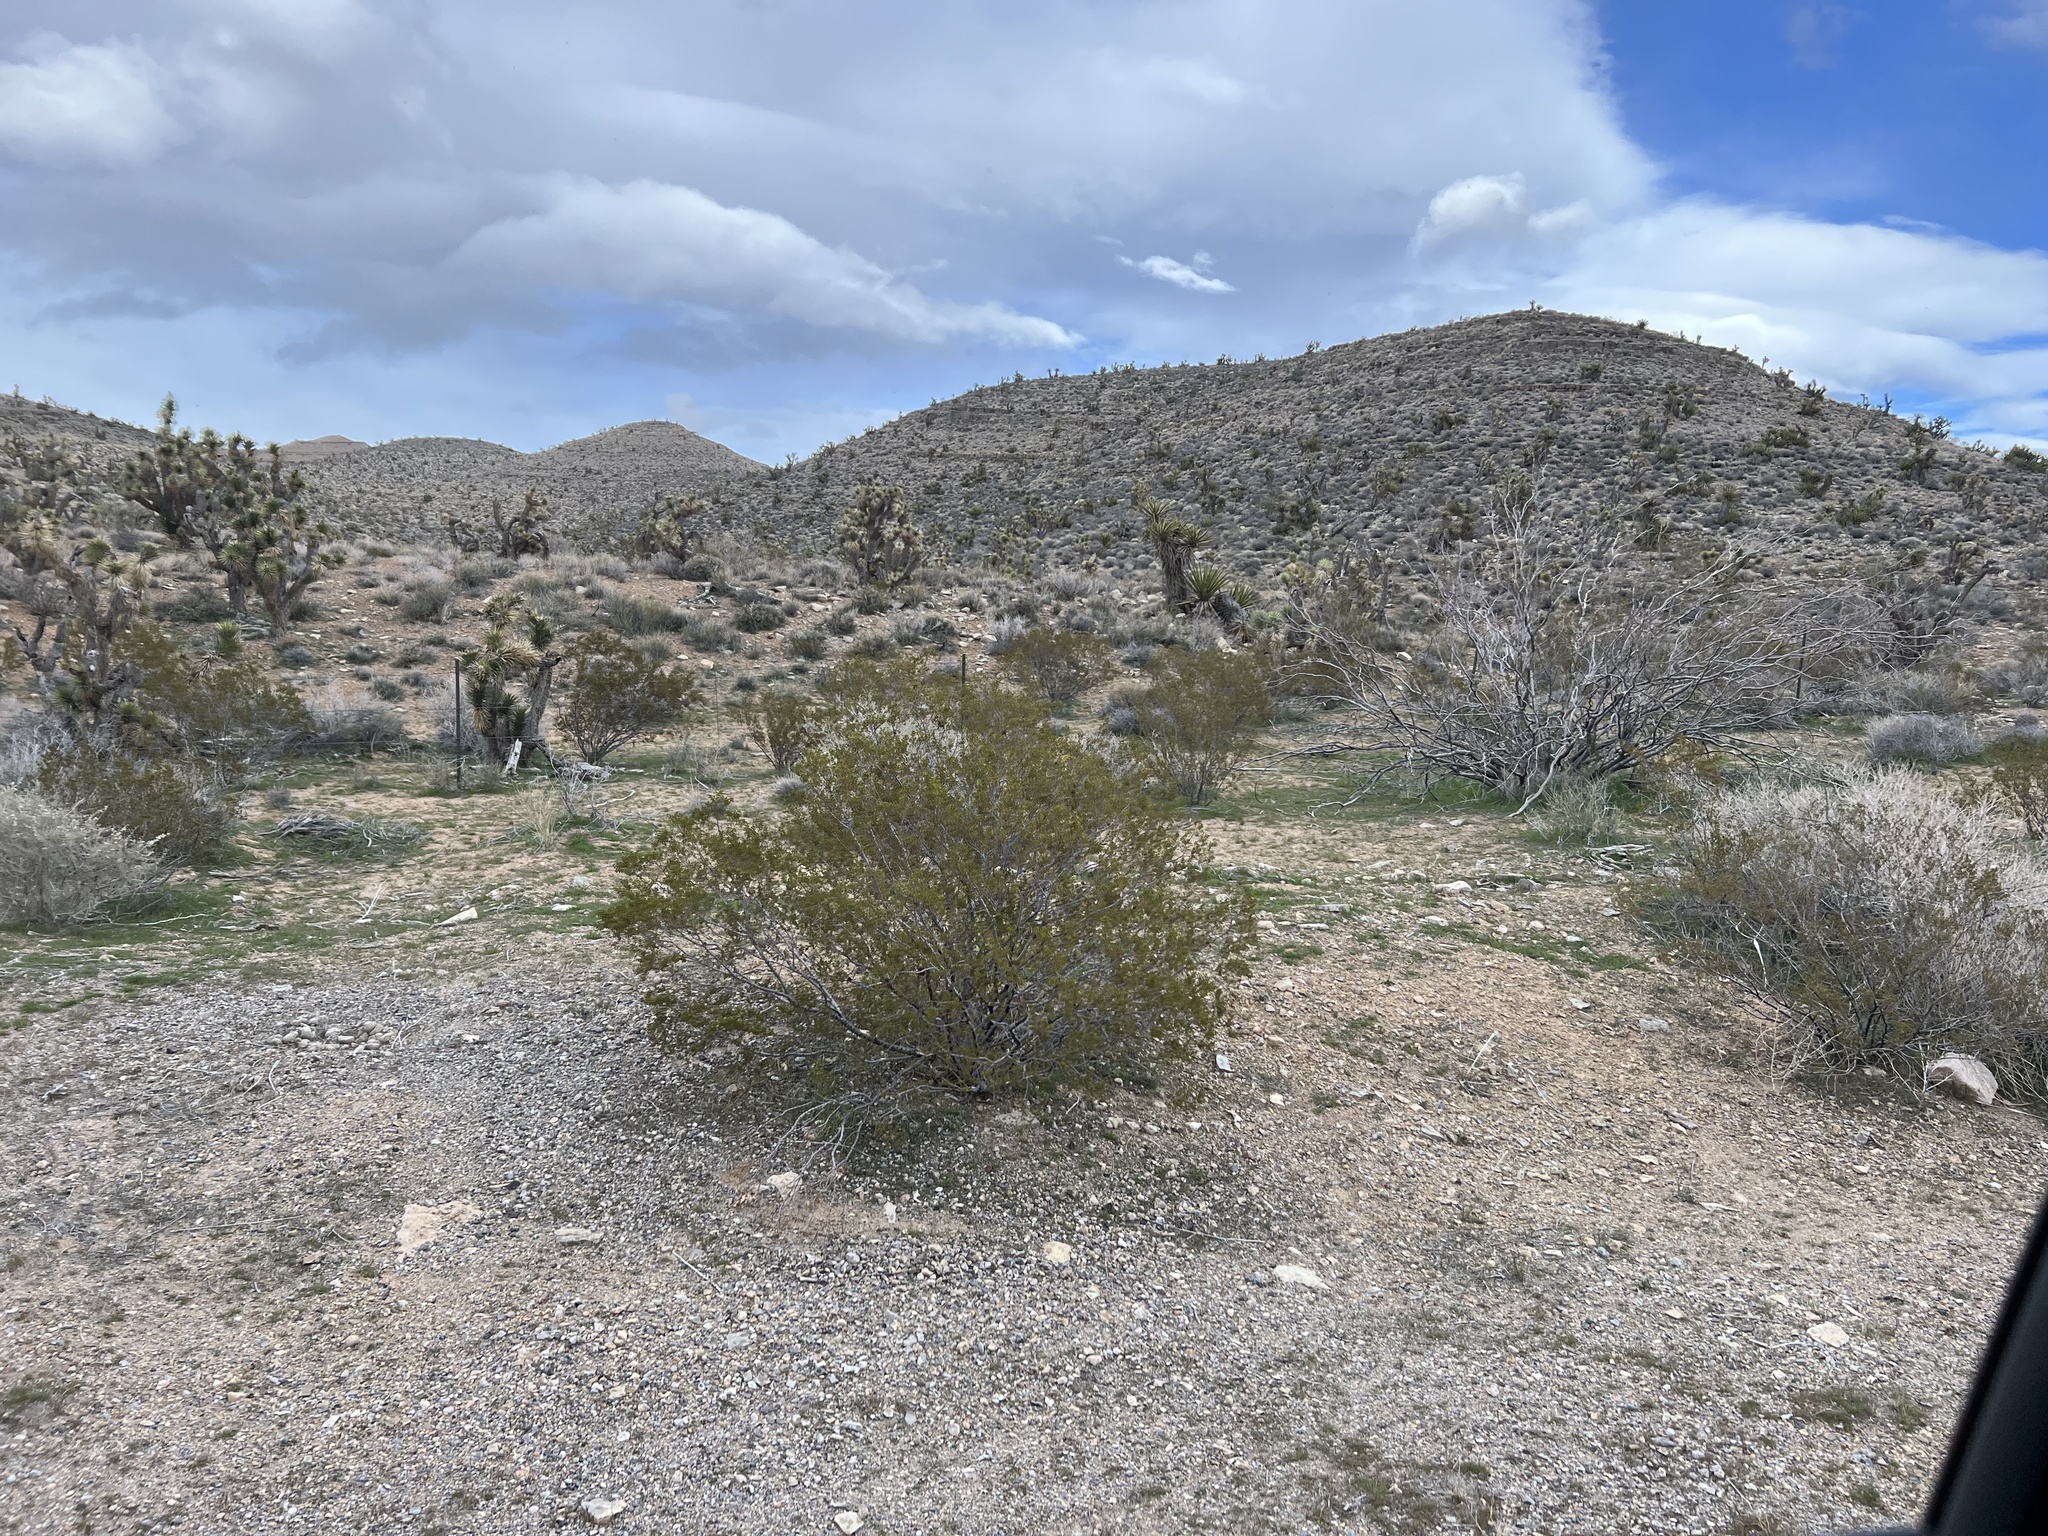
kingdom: Plantae
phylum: Tracheophyta
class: Magnoliopsida
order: Zygophyllales
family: Zygophyllaceae
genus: Larrea
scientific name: Larrea tridentata
